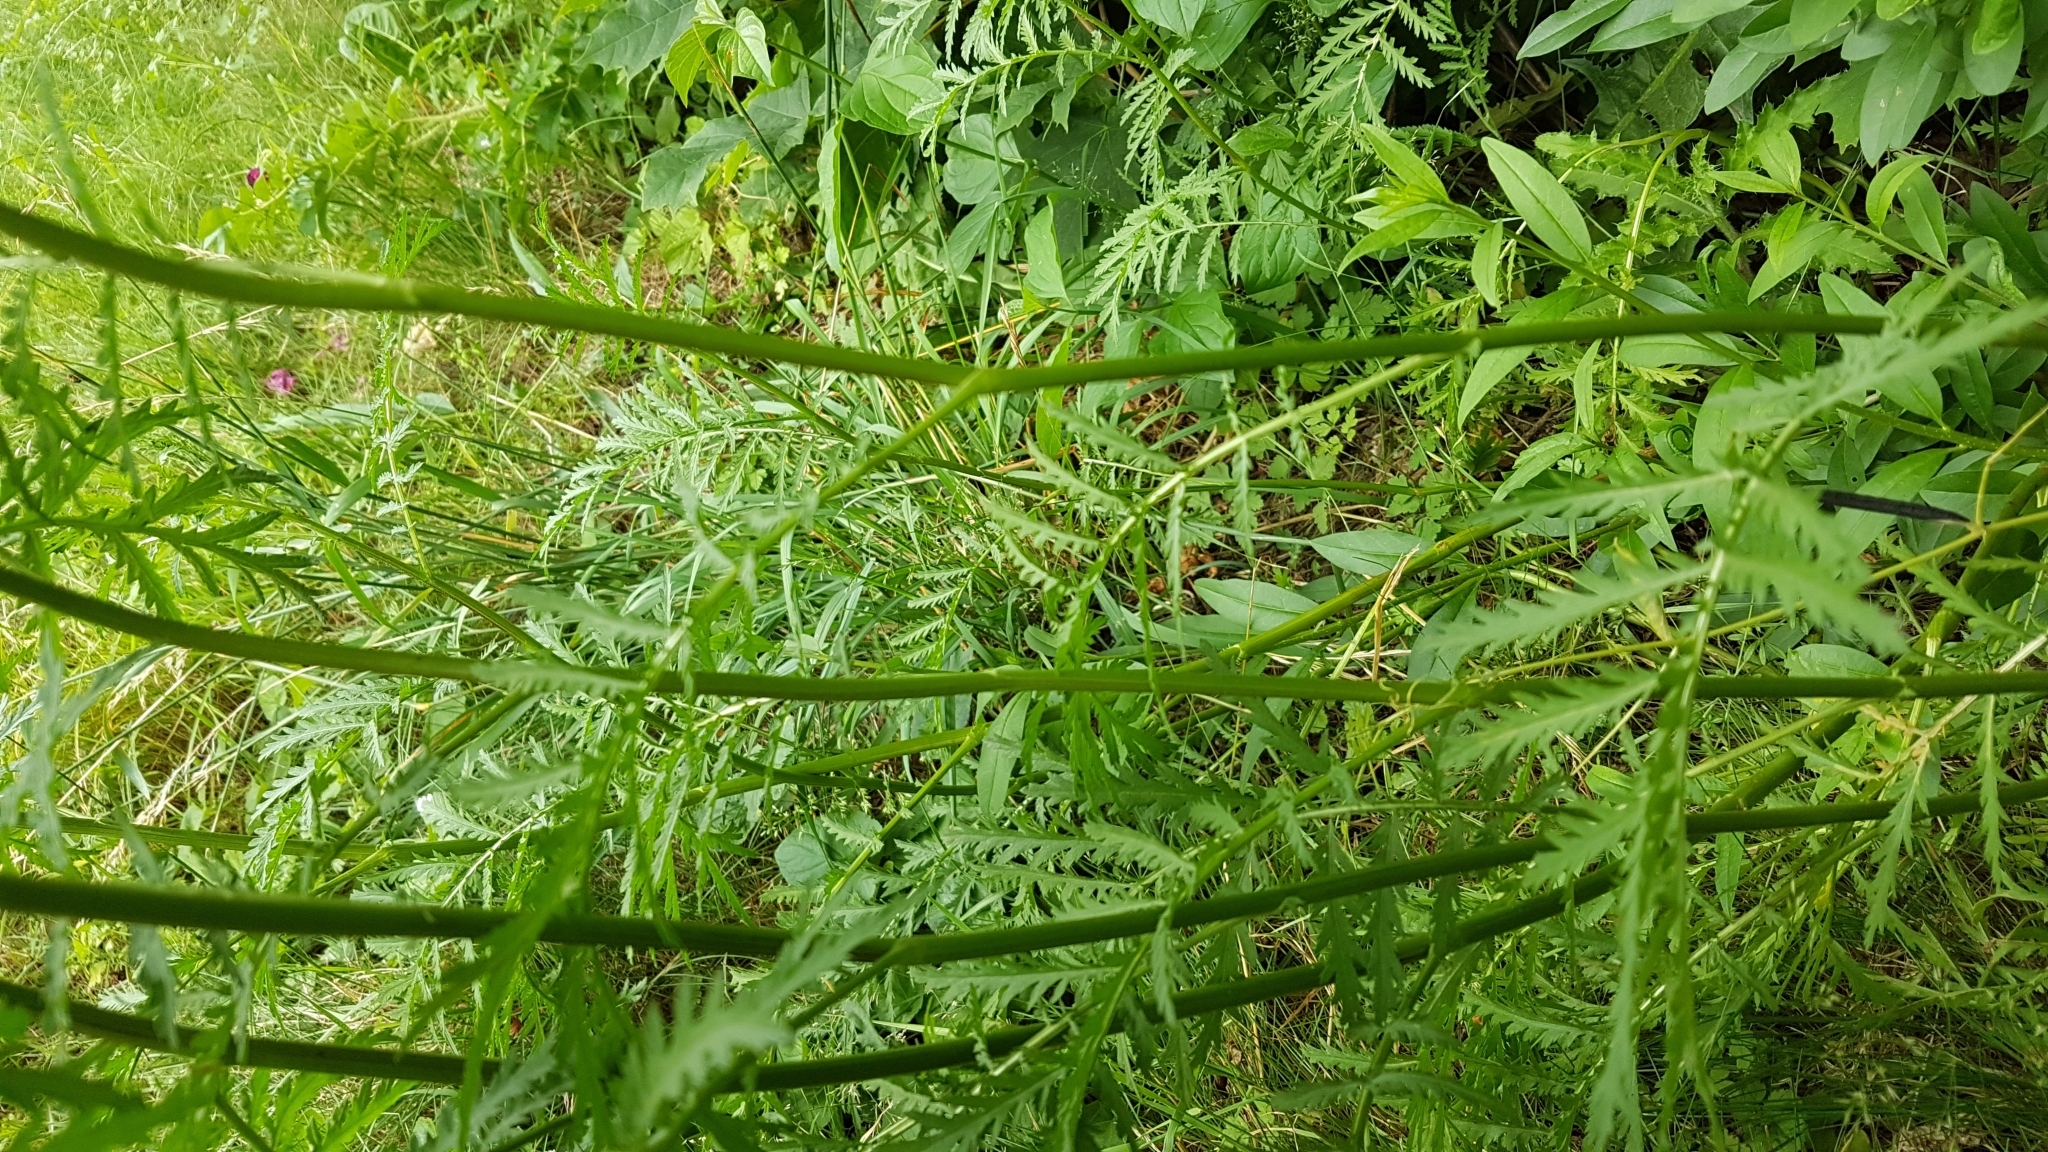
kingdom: Plantae
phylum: Tracheophyta
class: Magnoliopsida
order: Asterales
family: Asteraceae
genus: Tanacetum
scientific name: Tanacetum vulgare
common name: Common tansy
